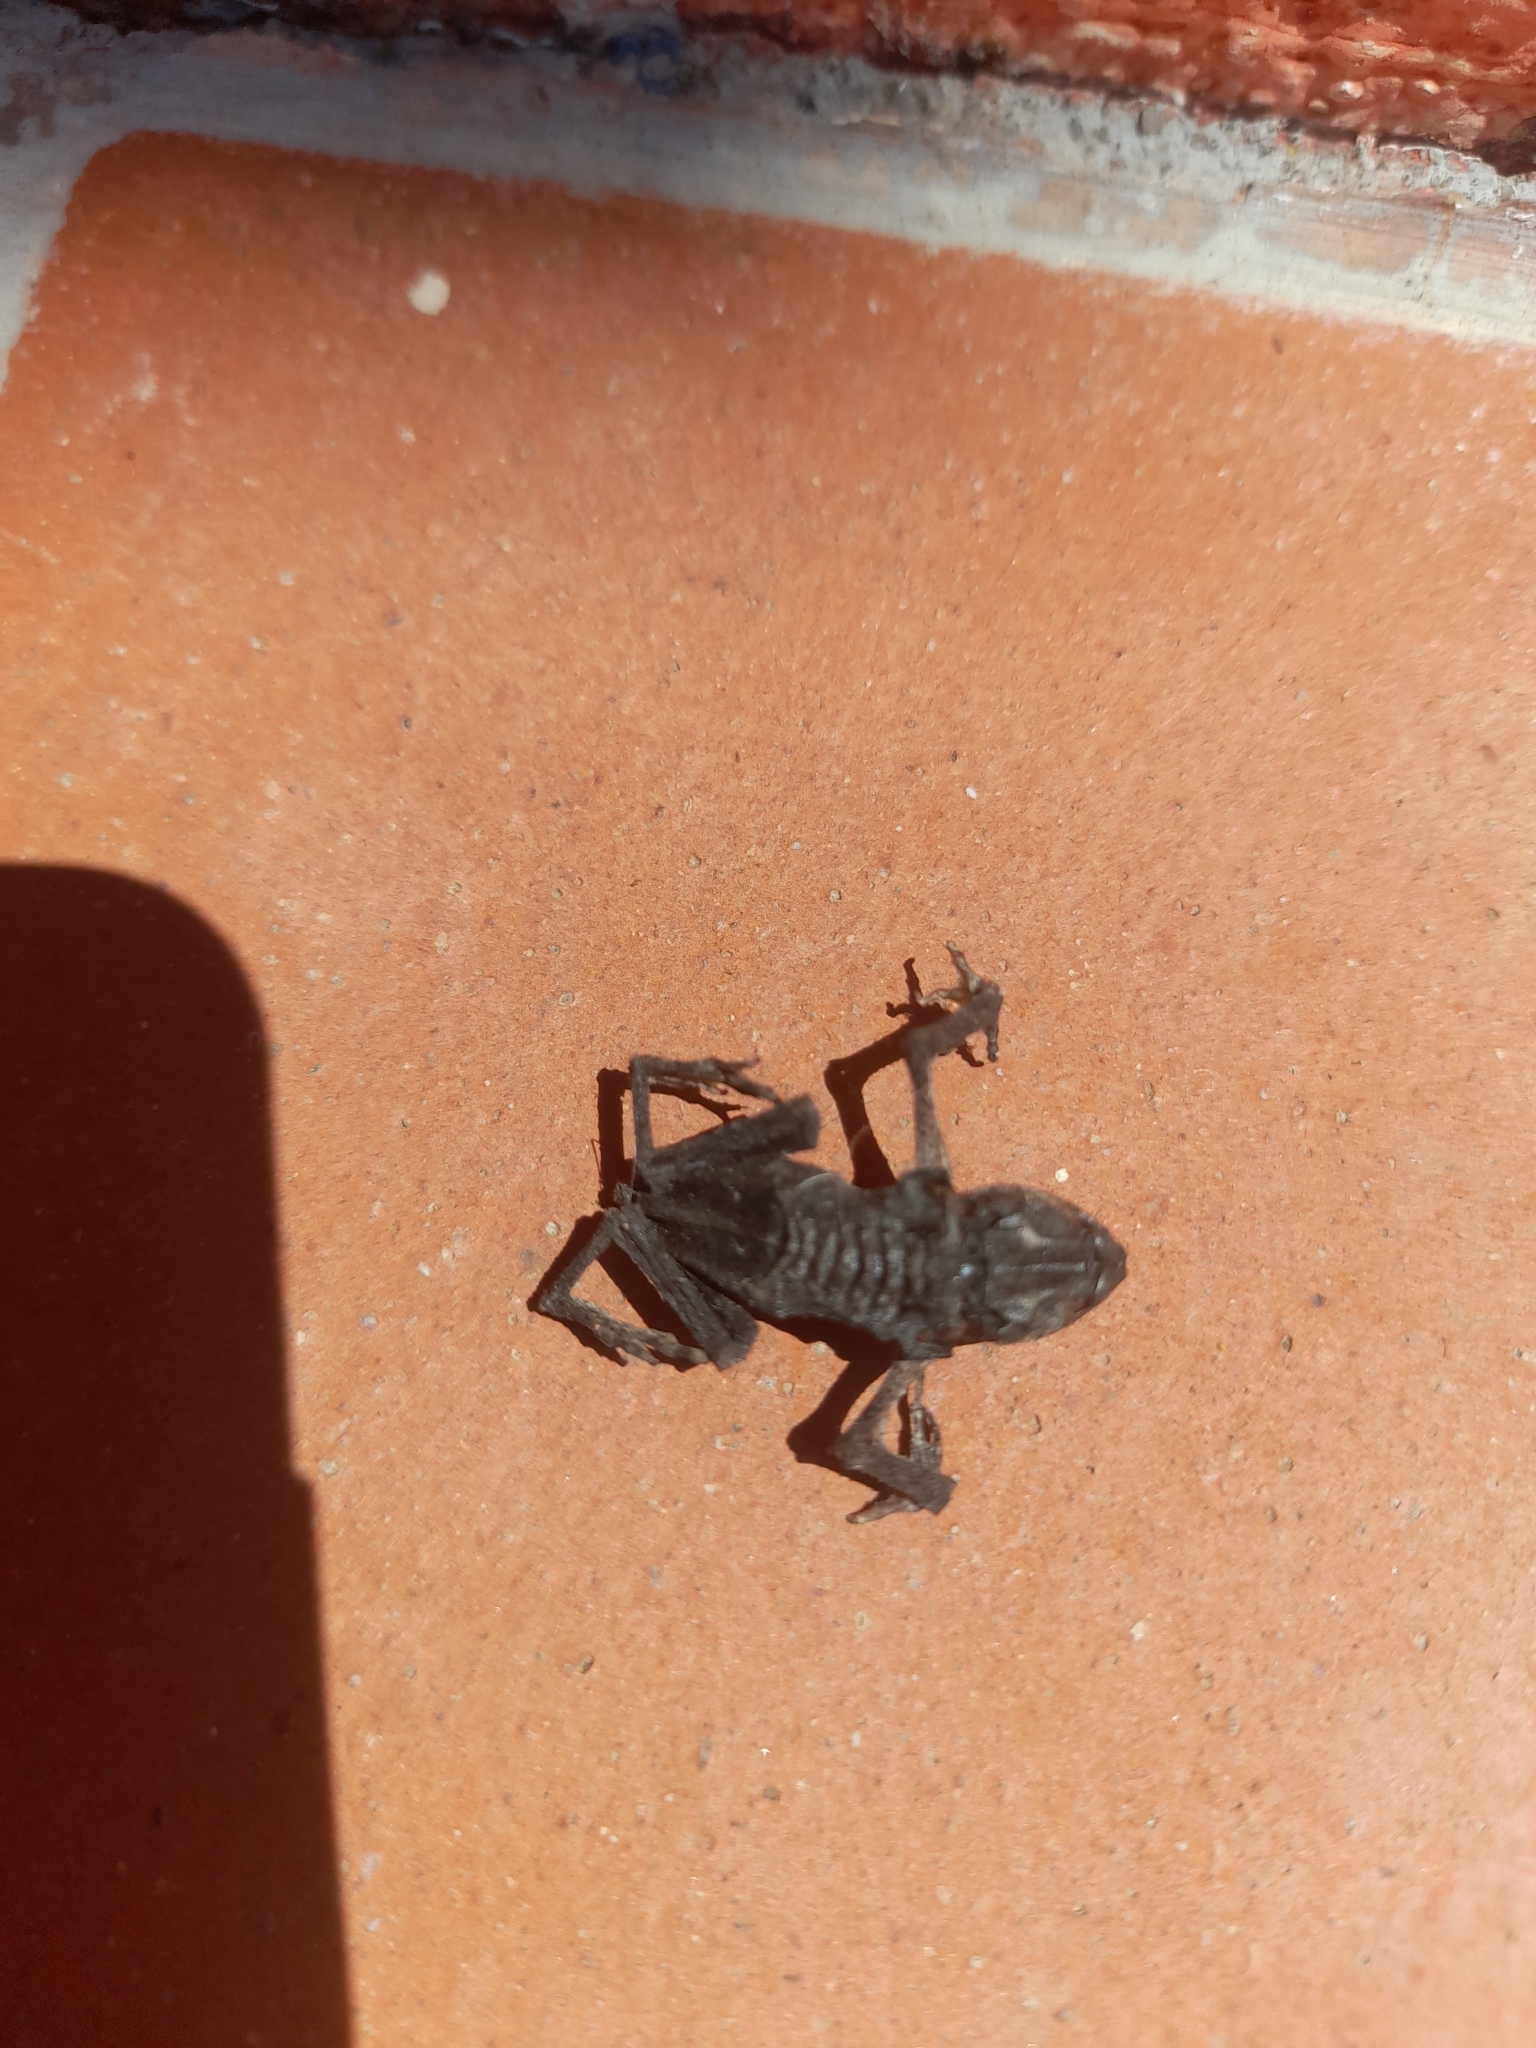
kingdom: Animalia
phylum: Chordata
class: Amphibia
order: Anura
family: Bufonidae
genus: Bufo
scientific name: Bufo bufo
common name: Common toad
